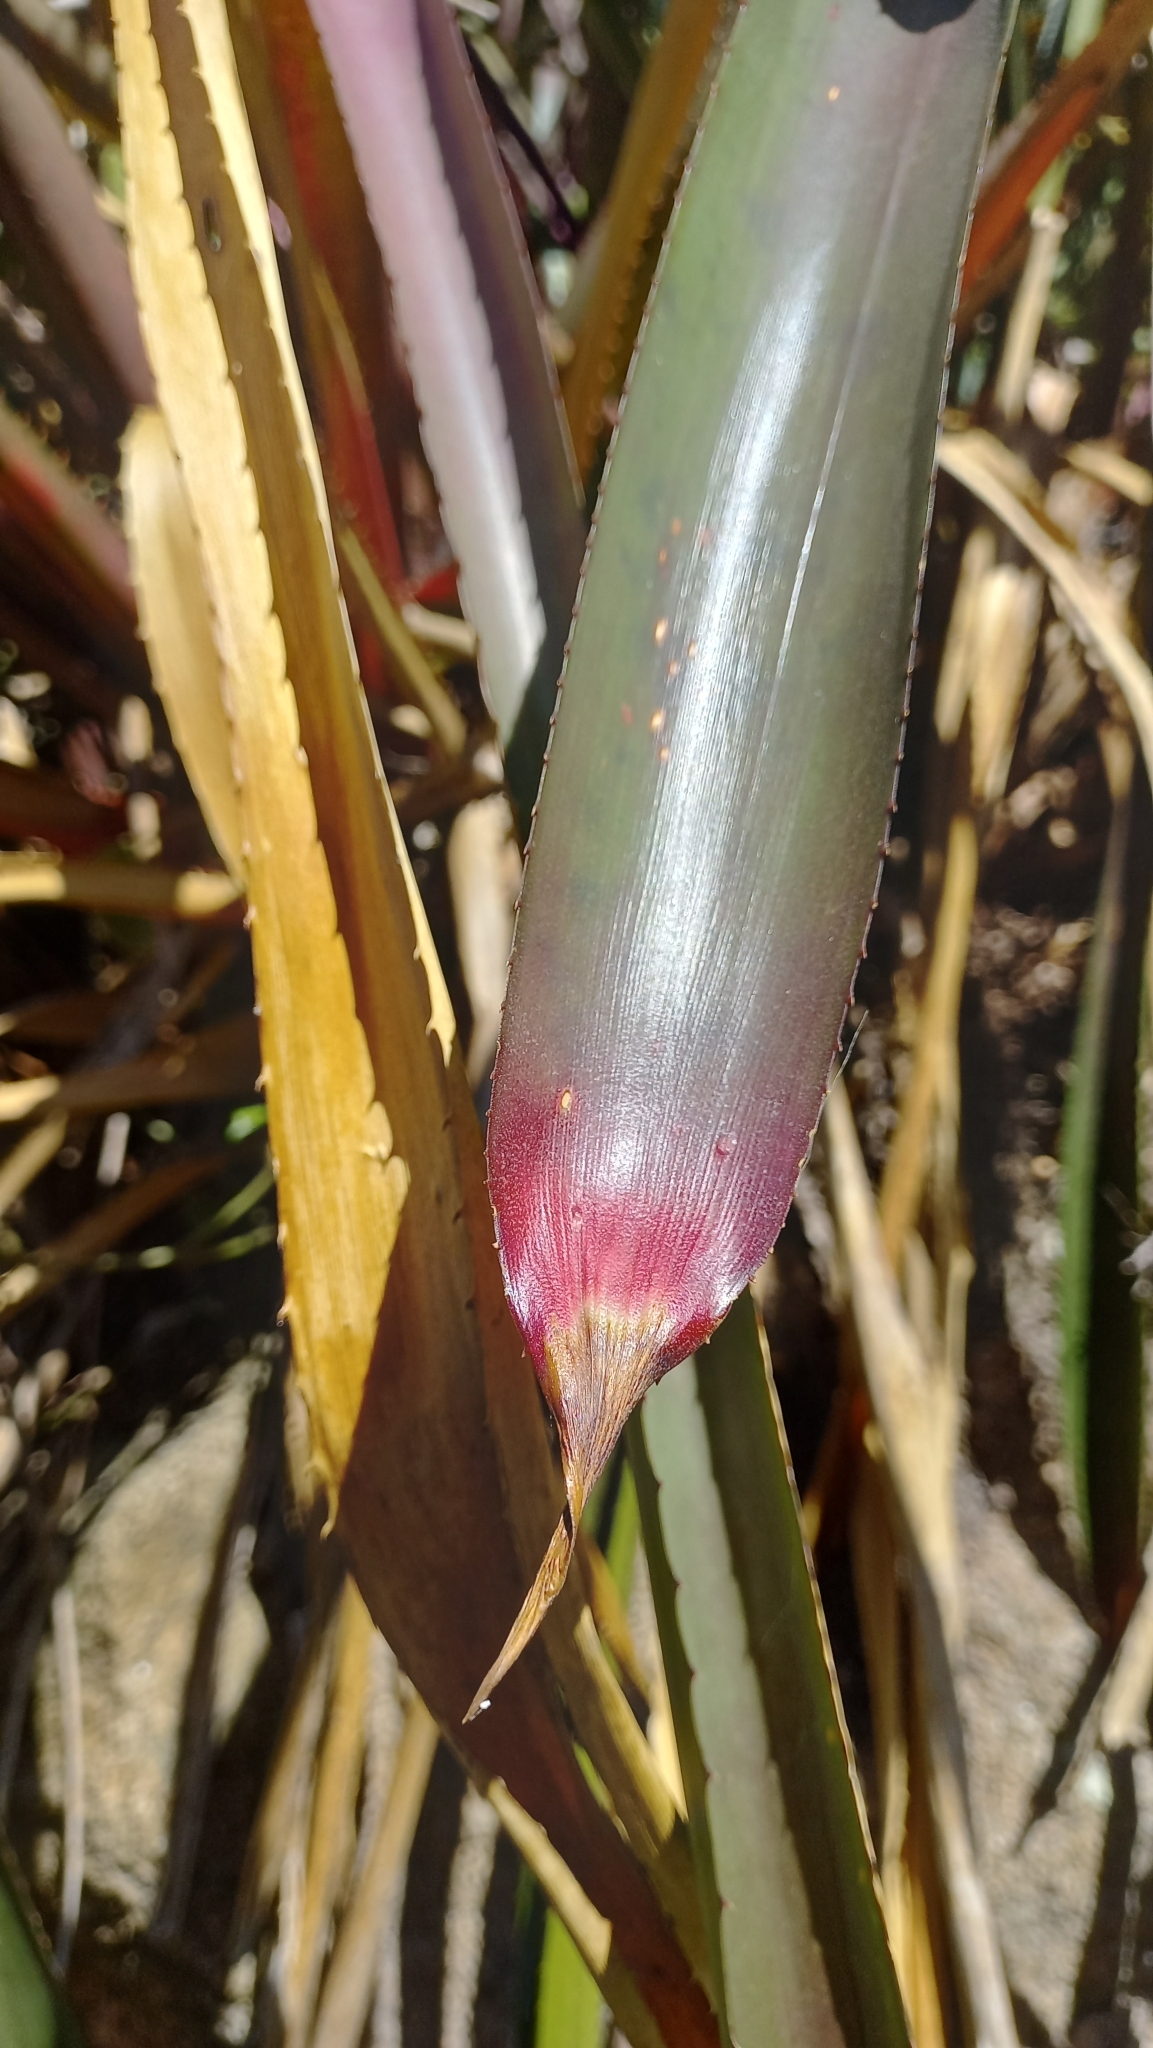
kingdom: Plantae
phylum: Tracheophyta
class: Liliopsida
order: Poales
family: Bromeliaceae
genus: Wittrockia
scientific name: Wittrockia superba
